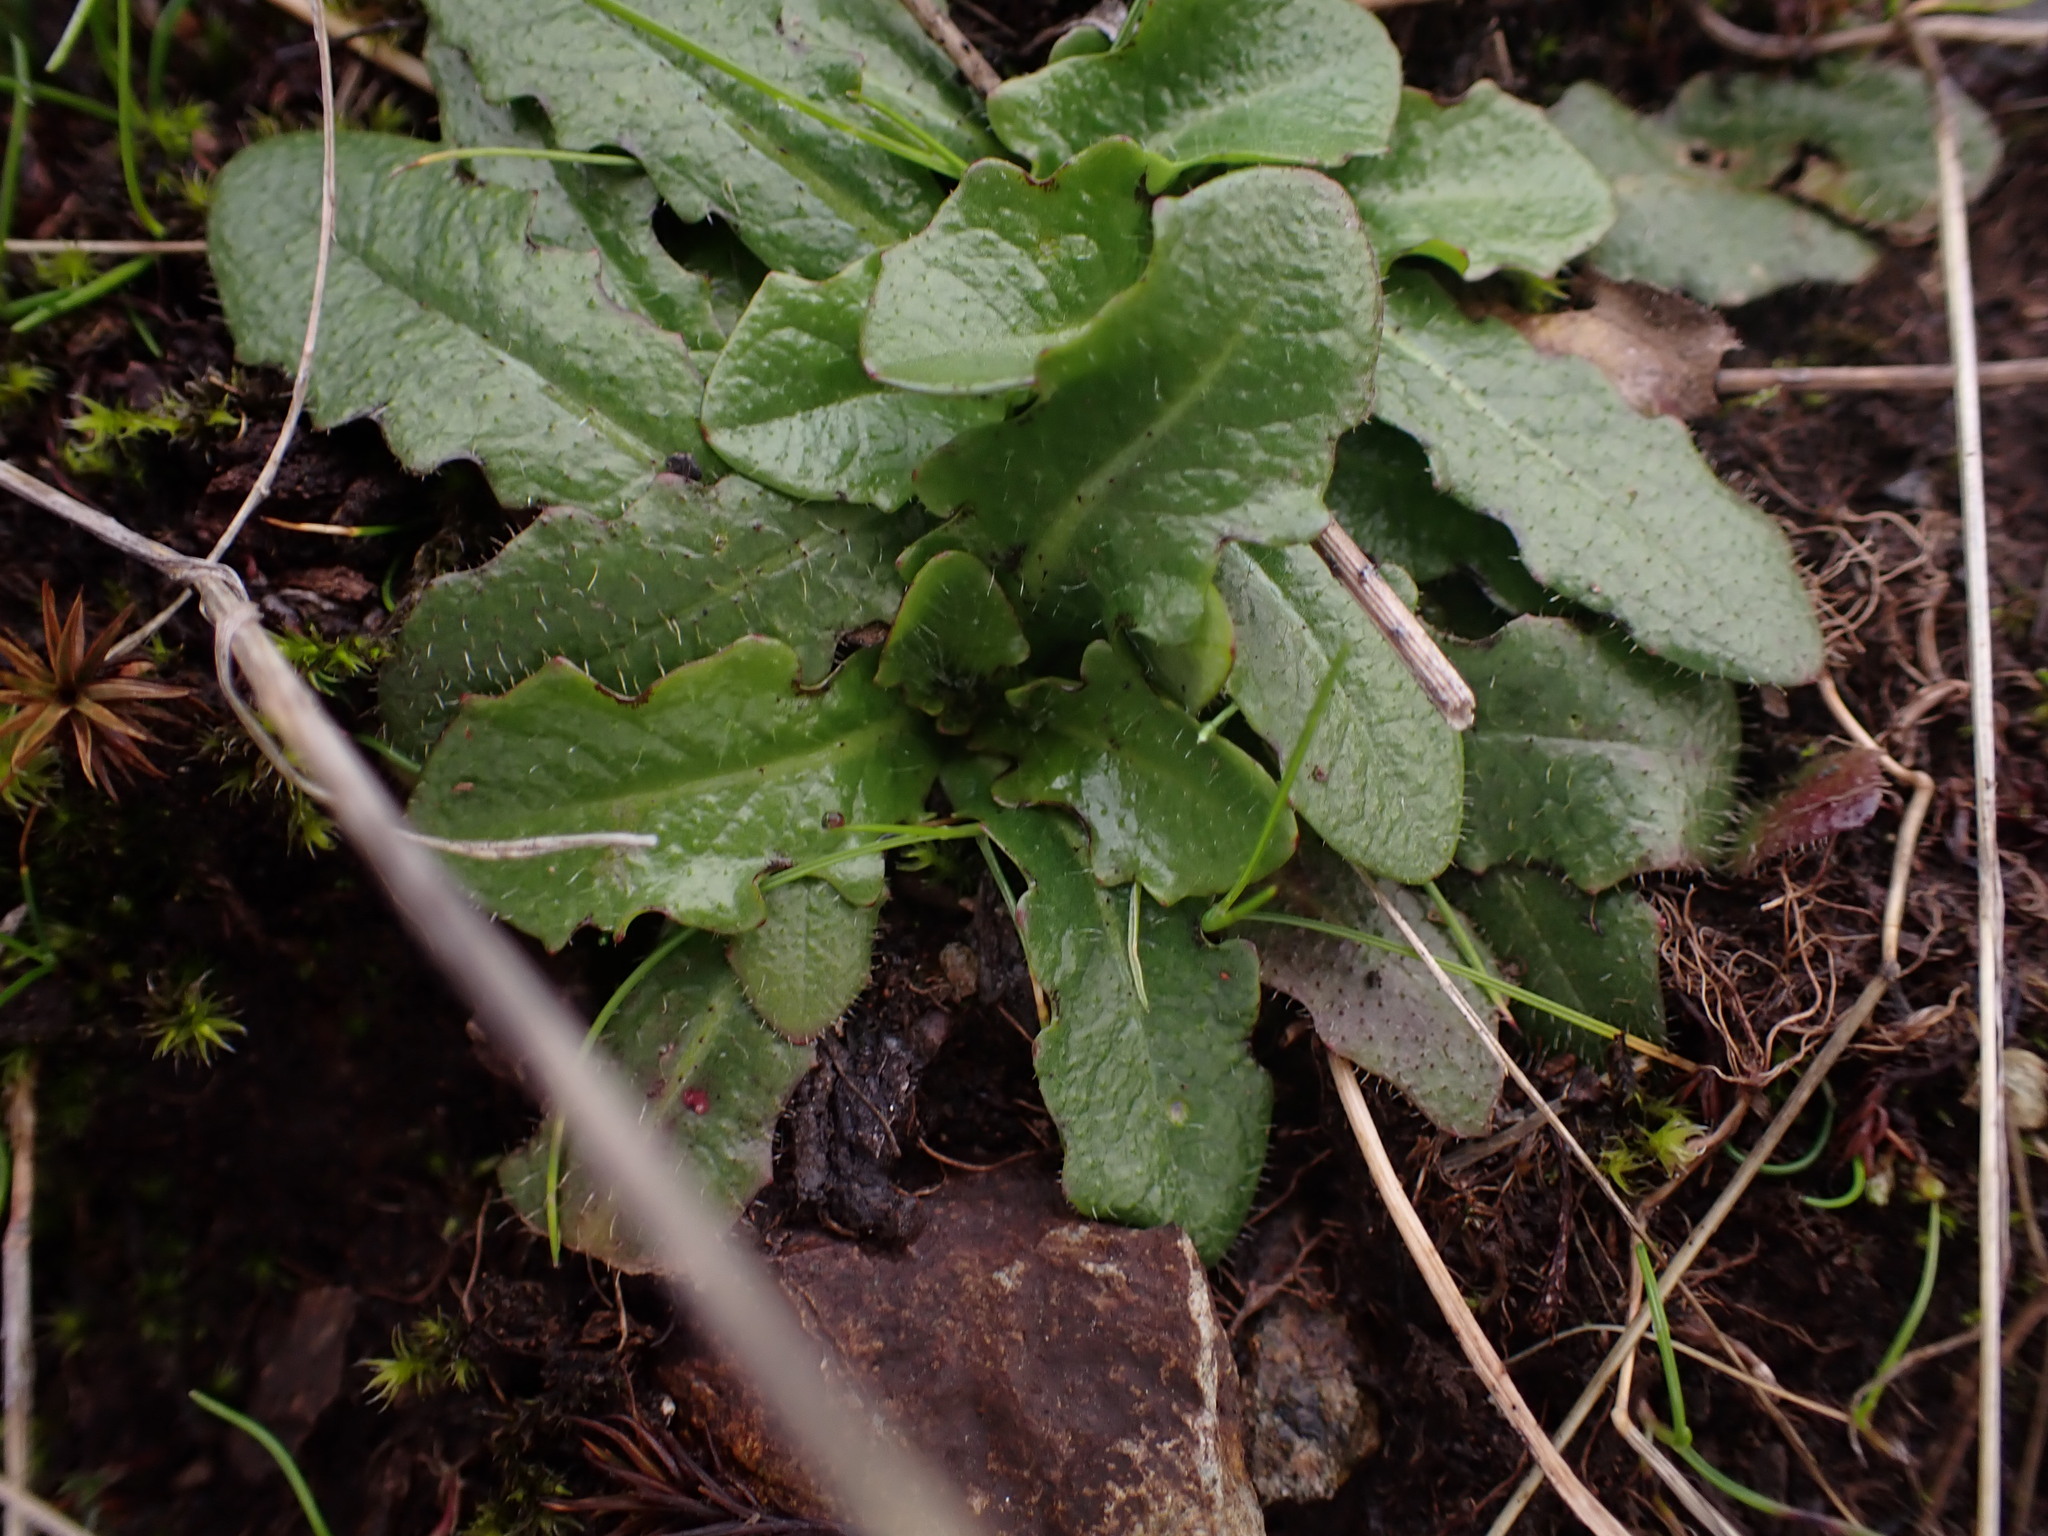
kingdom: Plantae
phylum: Tracheophyta
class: Magnoliopsida
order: Asterales
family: Asteraceae
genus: Hypochaeris
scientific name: Hypochaeris radicata
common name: Flatweed
